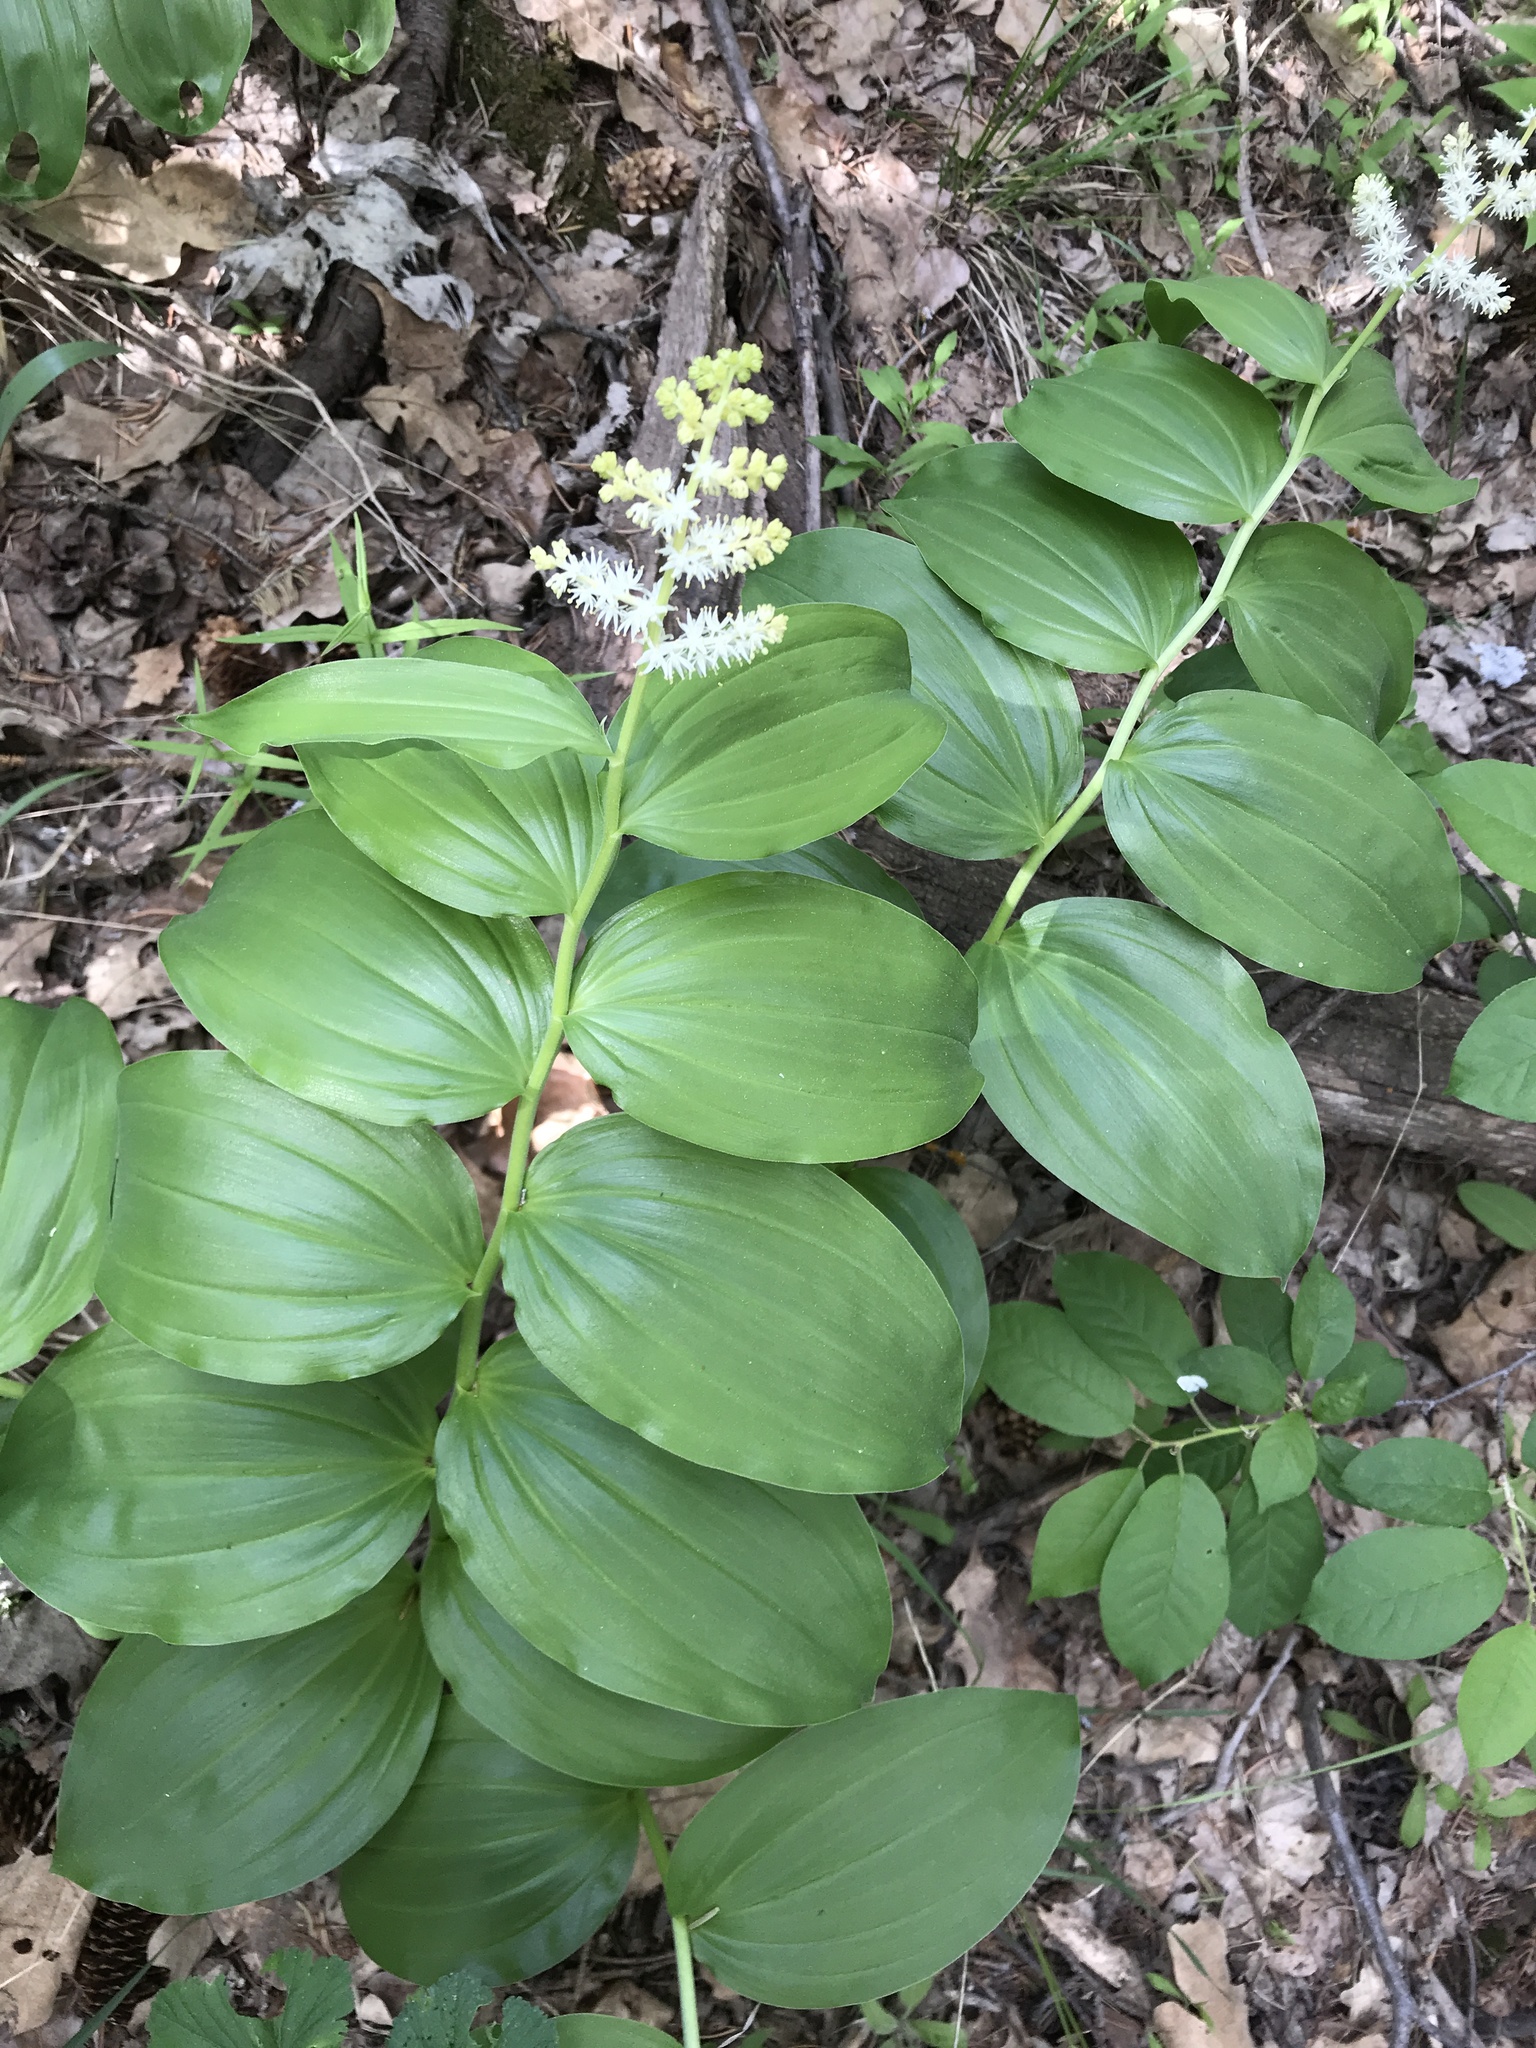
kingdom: Plantae
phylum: Tracheophyta
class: Liliopsida
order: Asparagales
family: Asparagaceae
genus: Maianthemum
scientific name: Maianthemum racemosum
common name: False spikenard
